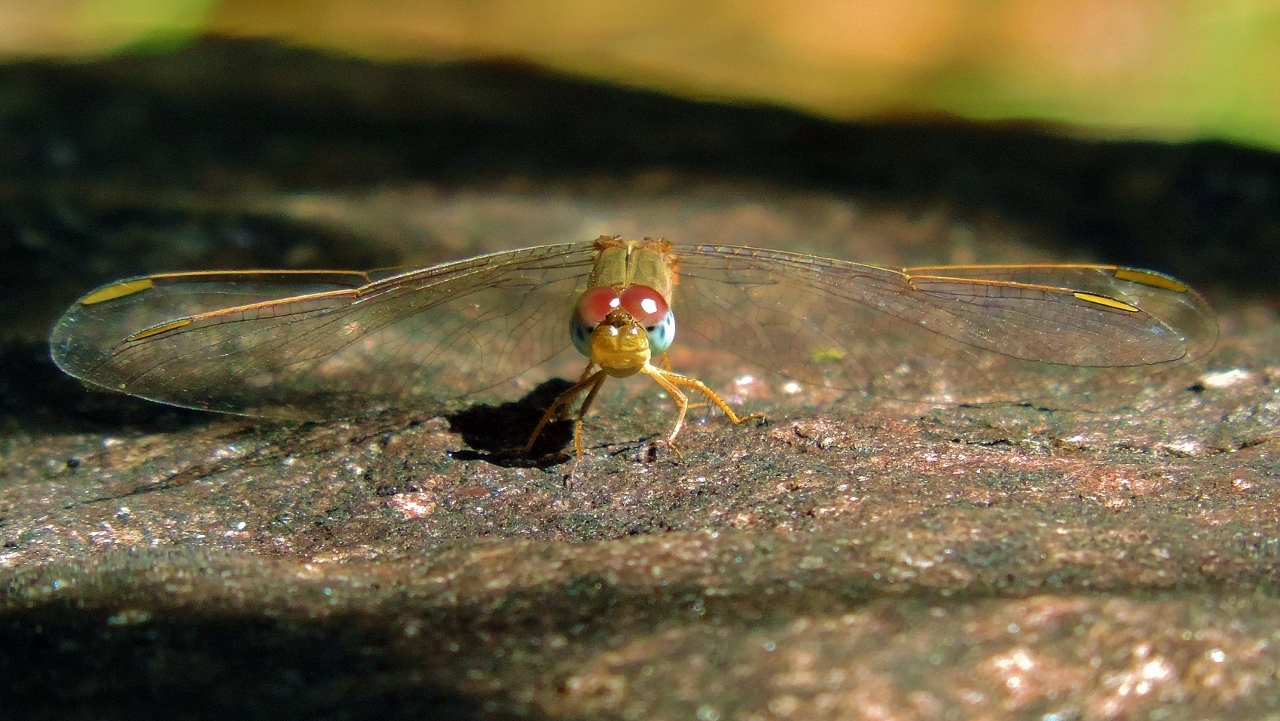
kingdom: Animalia
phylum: Arthropoda
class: Insecta
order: Odonata
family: Libellulidae
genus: Crocothemis
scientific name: Crocothemis divisa
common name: Divisa scarlet
